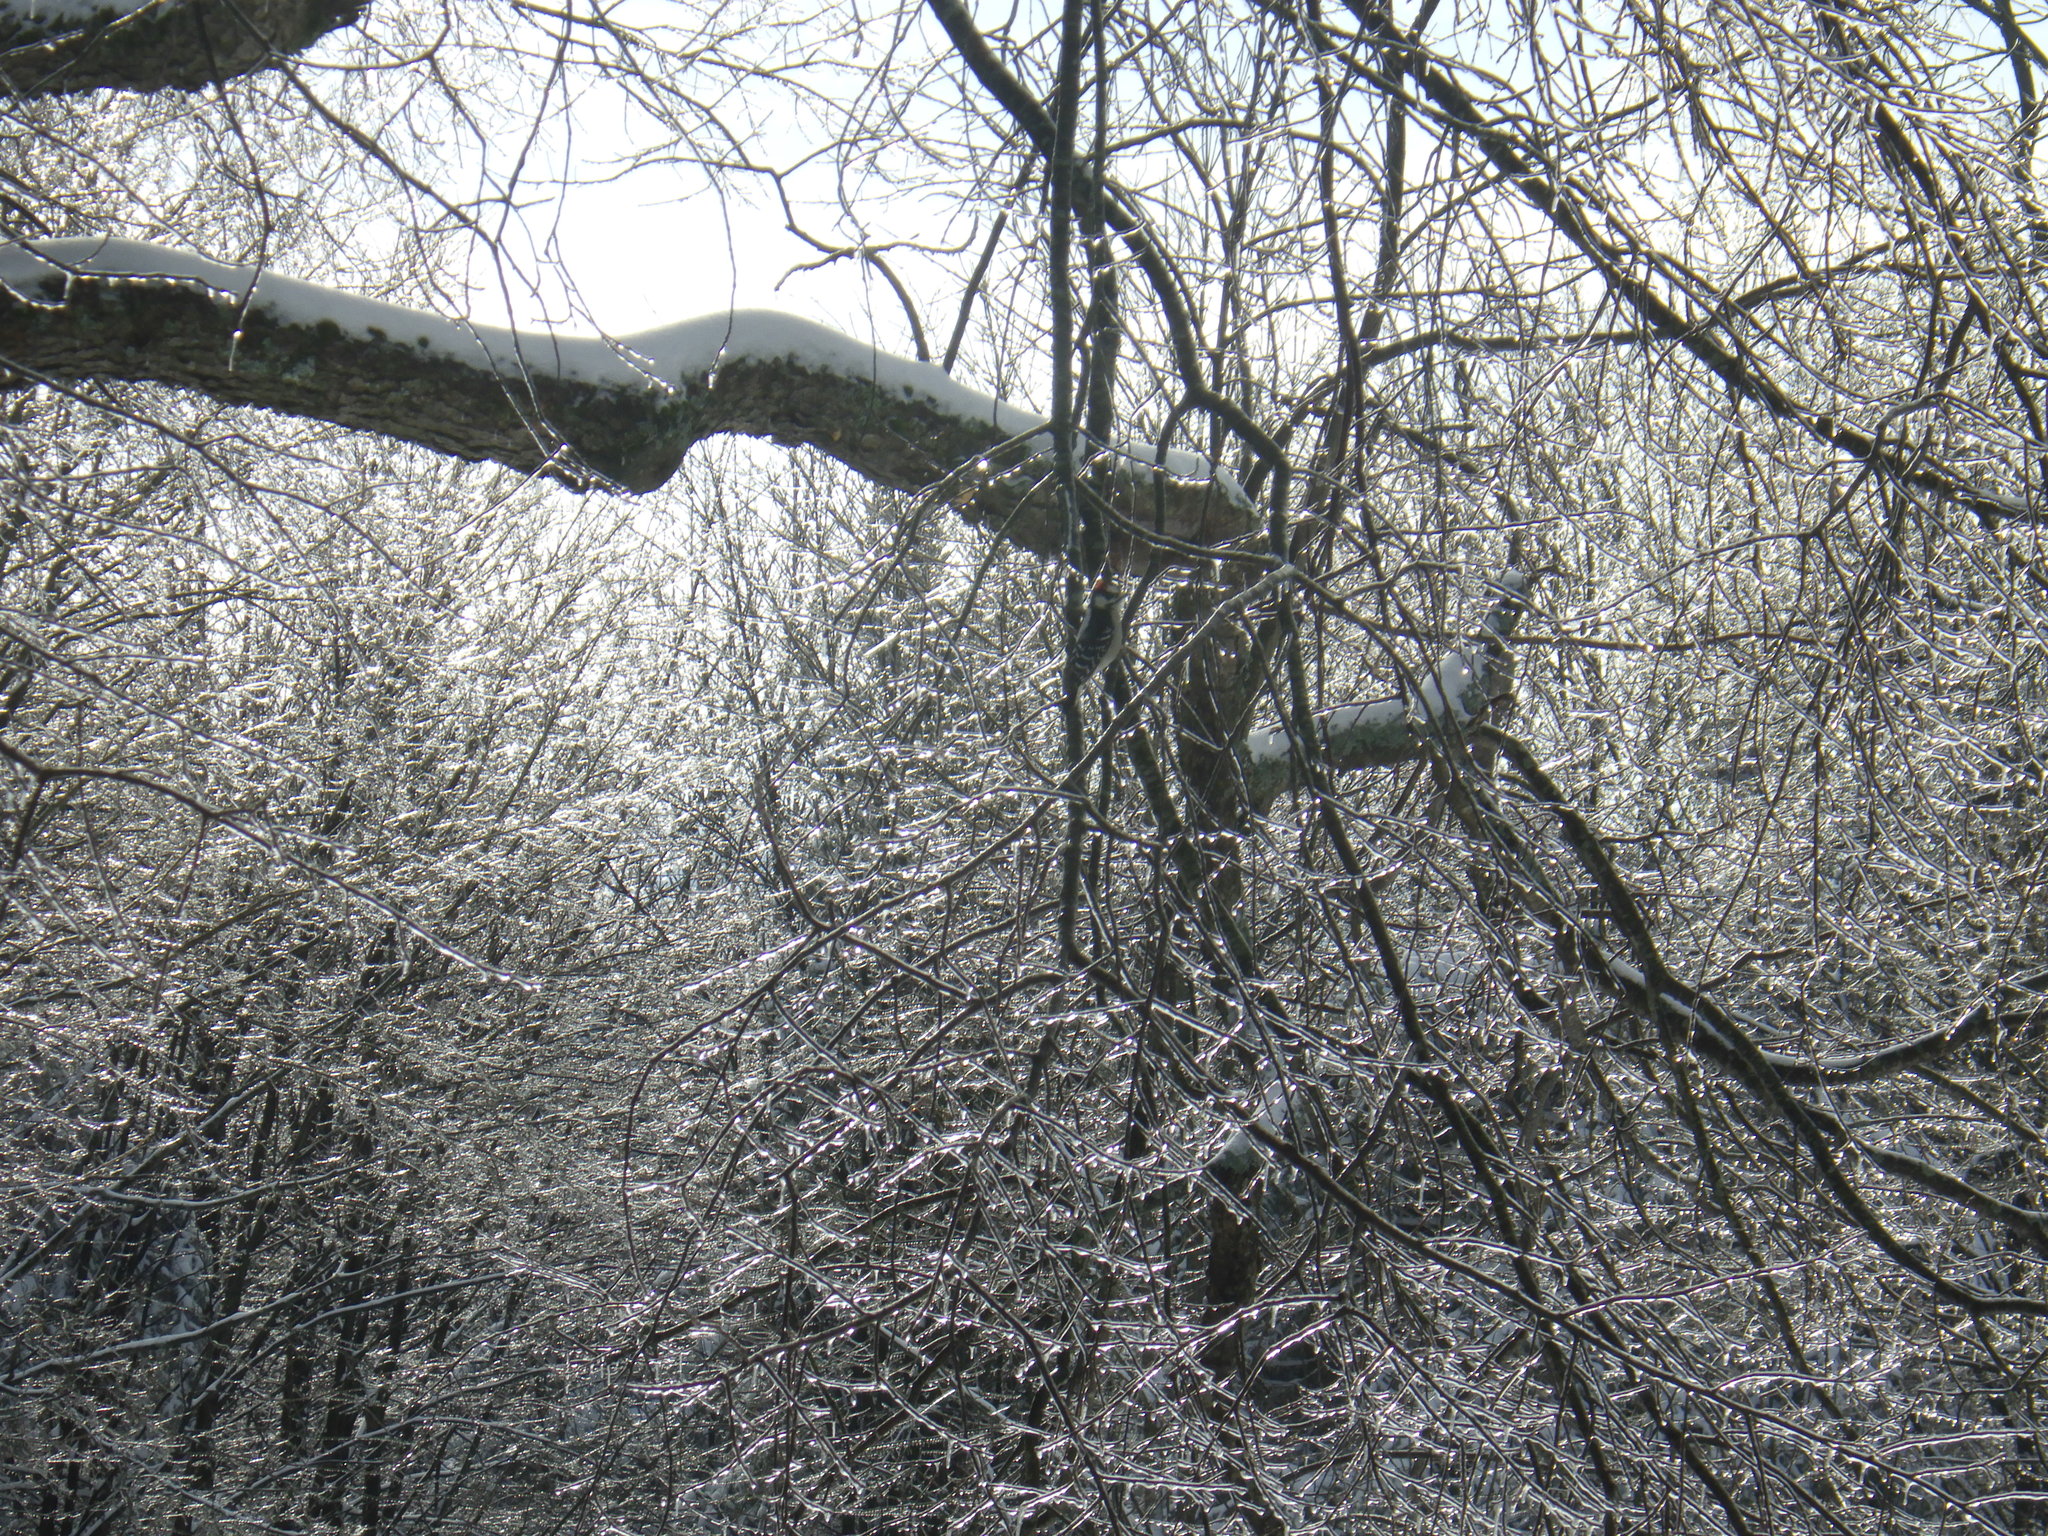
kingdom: Animalia
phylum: Chordata
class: Aves
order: Piciformes
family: Picidae
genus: Dryobates
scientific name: Dryobates pubescens
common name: Downy woodpecker
